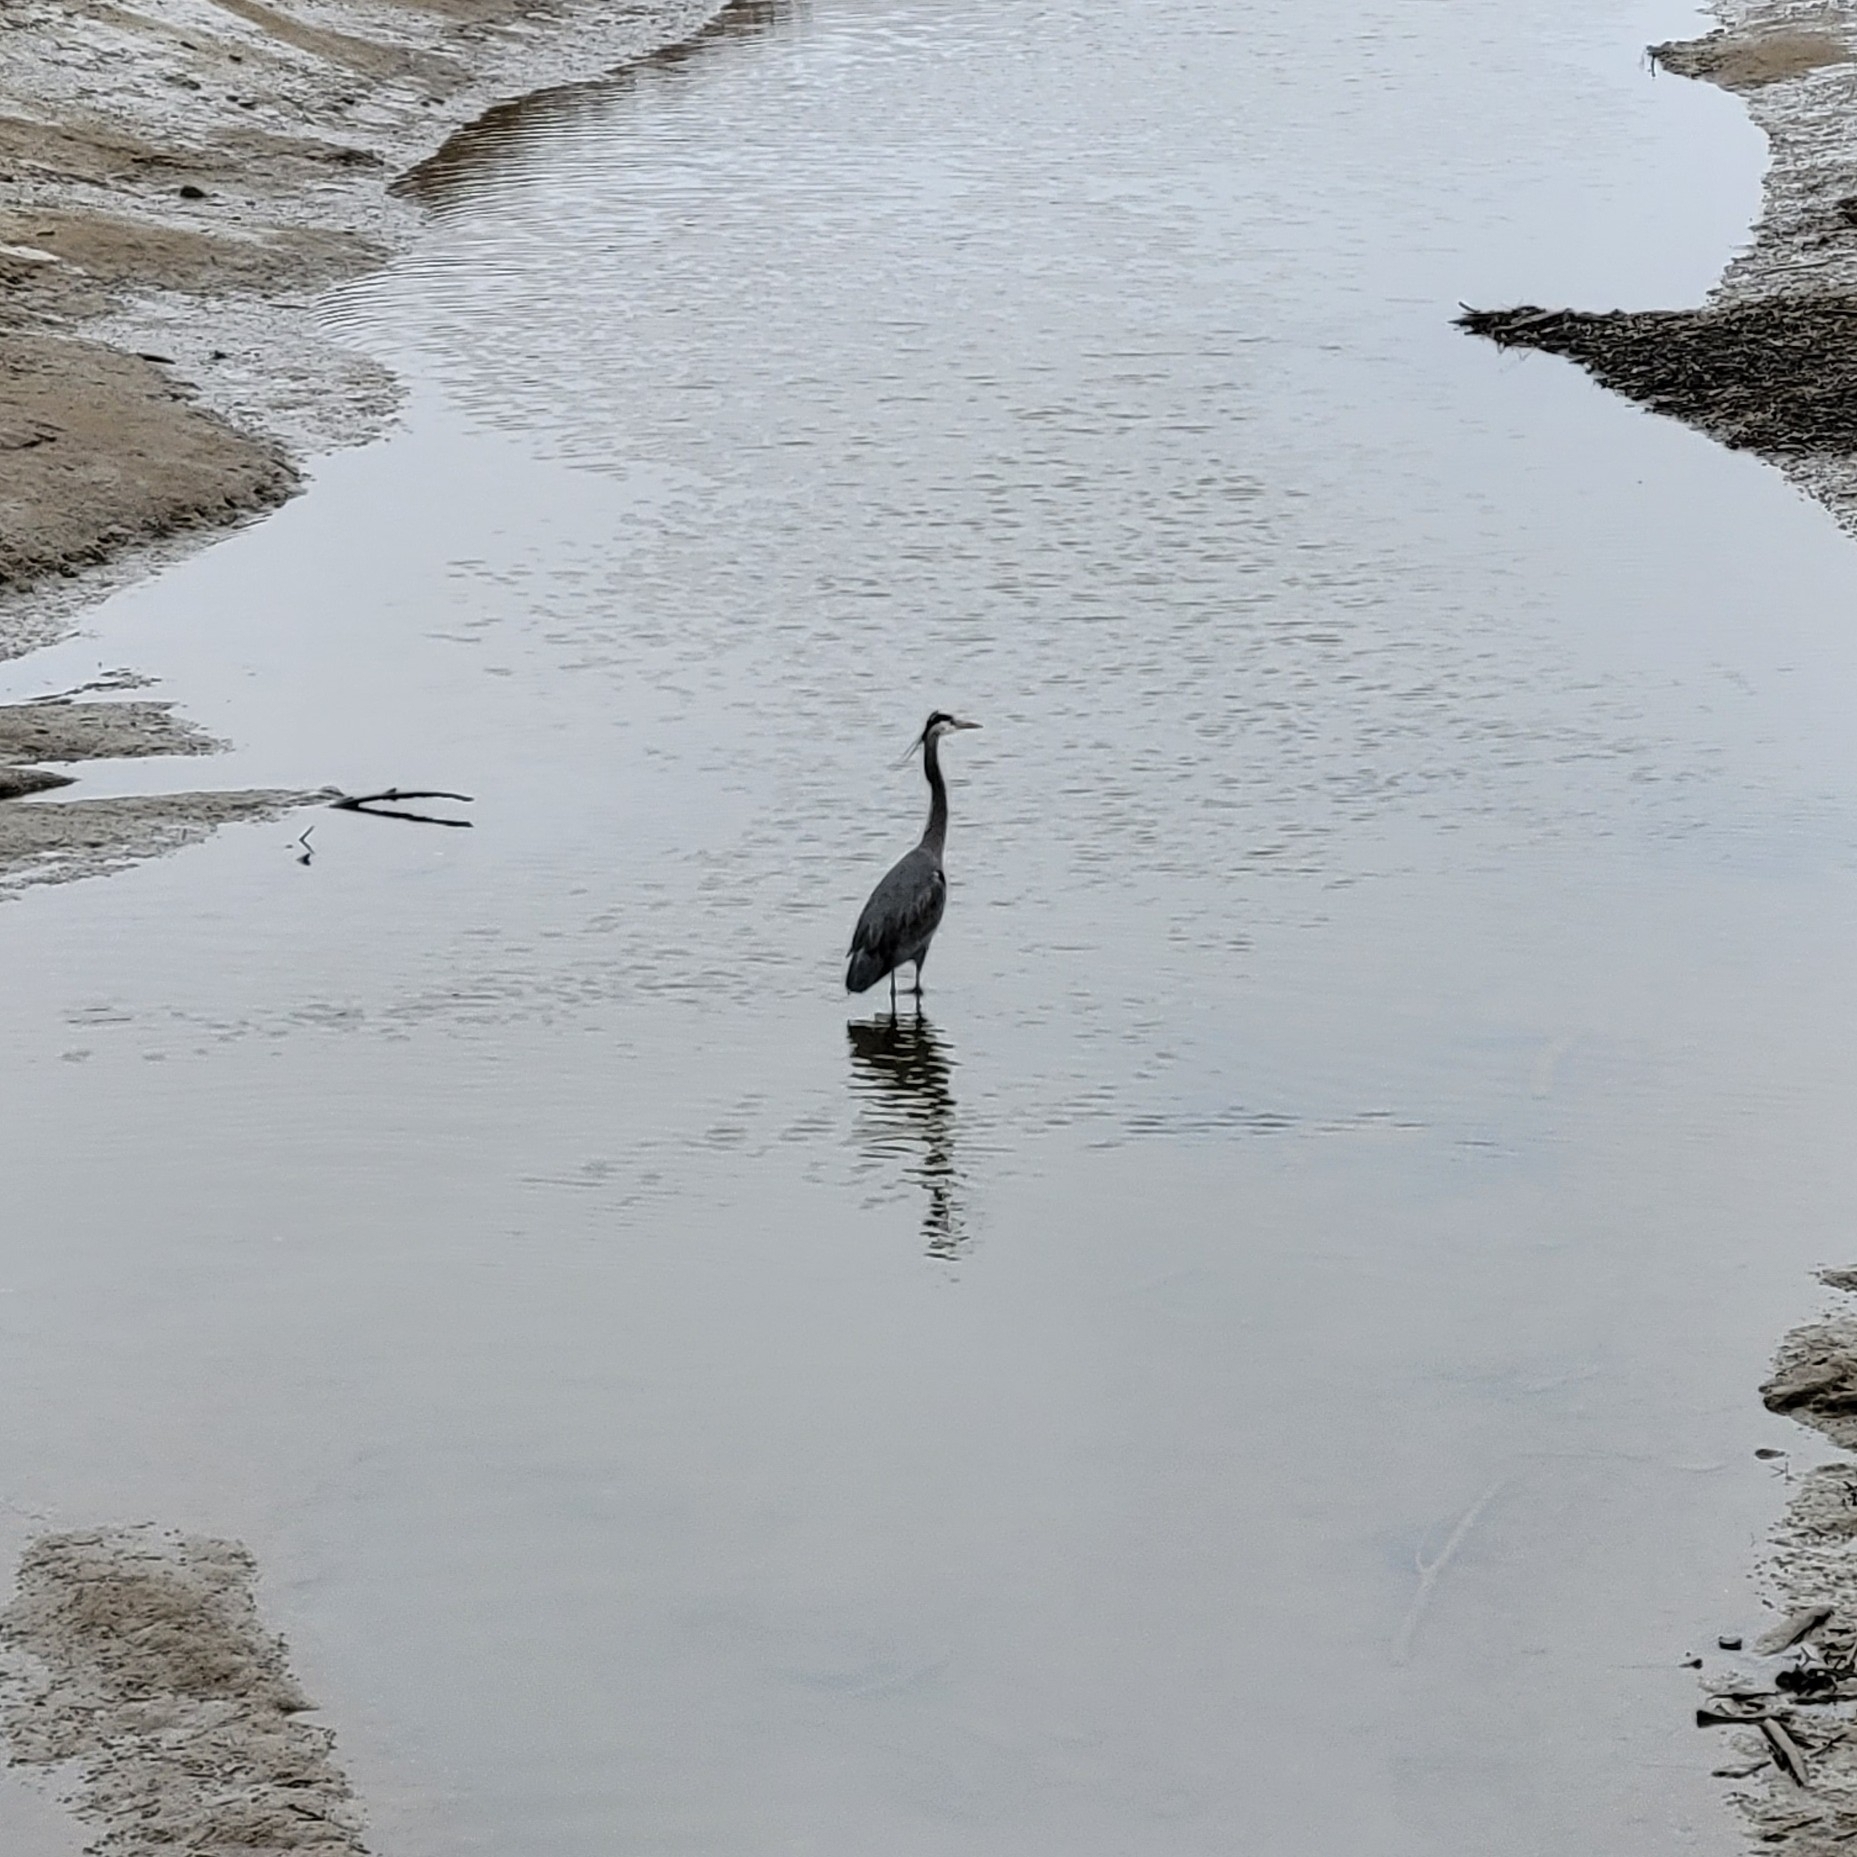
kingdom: Animalia
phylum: Chordata
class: Aves
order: Pelecaniformes
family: Ardeidae
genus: Ardea
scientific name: Ardea herodias
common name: Great blue heron
